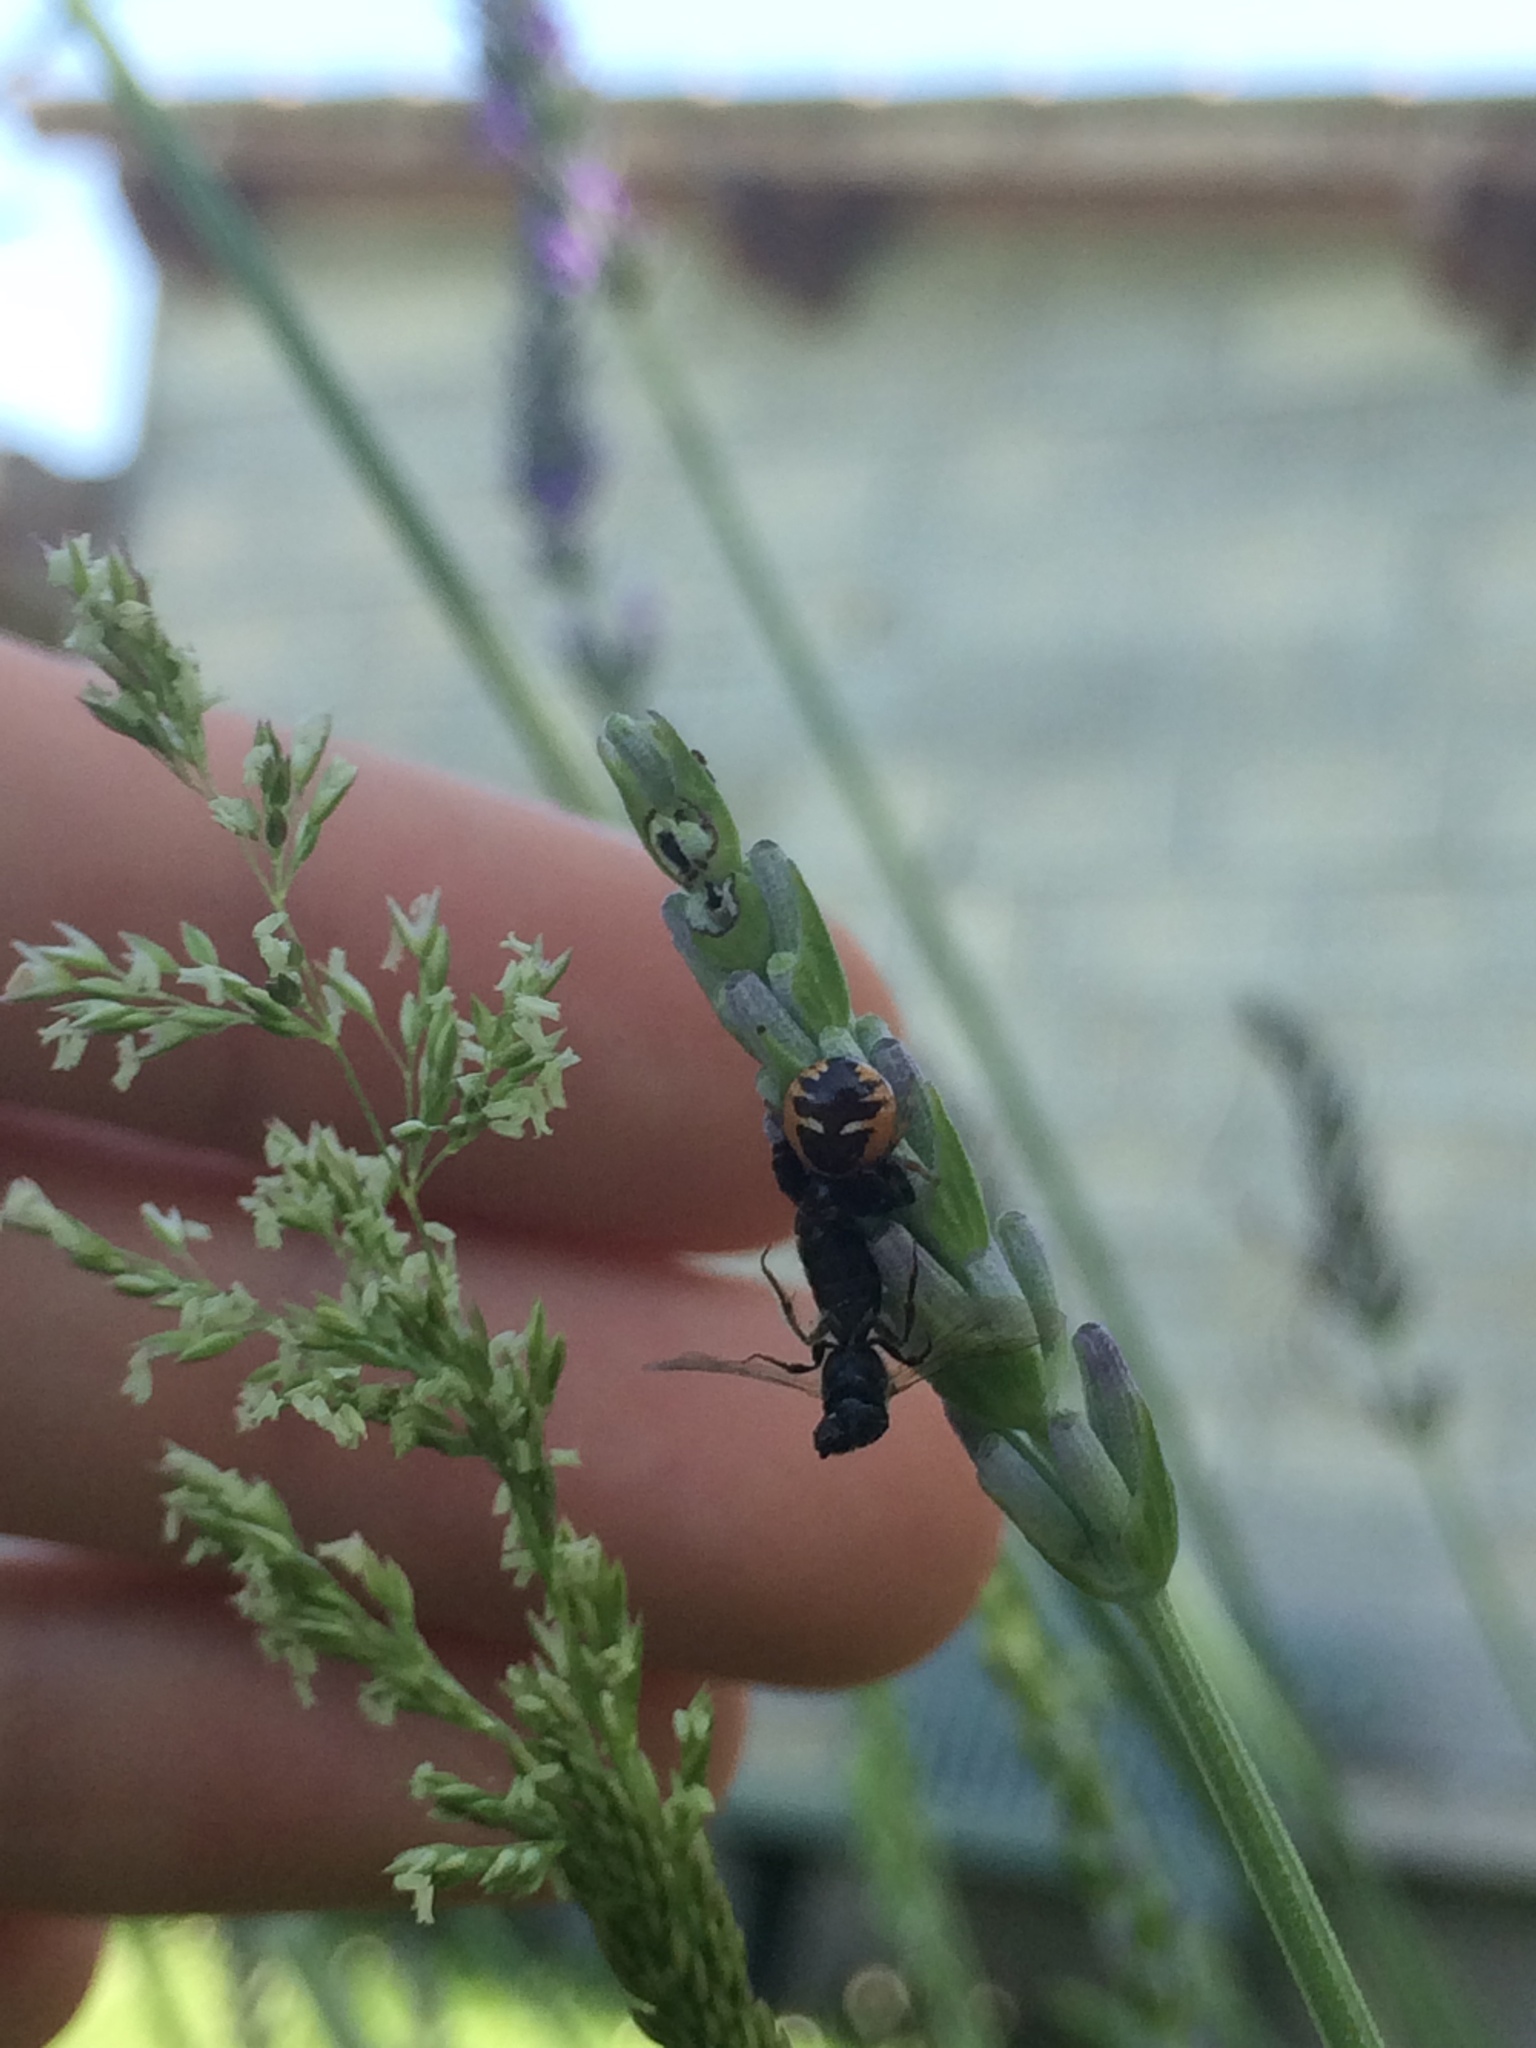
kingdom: Animalia
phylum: Arthropoda
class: Arachnida
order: Araneae
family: Thomisidae
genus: Synema
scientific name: Synema globosum
